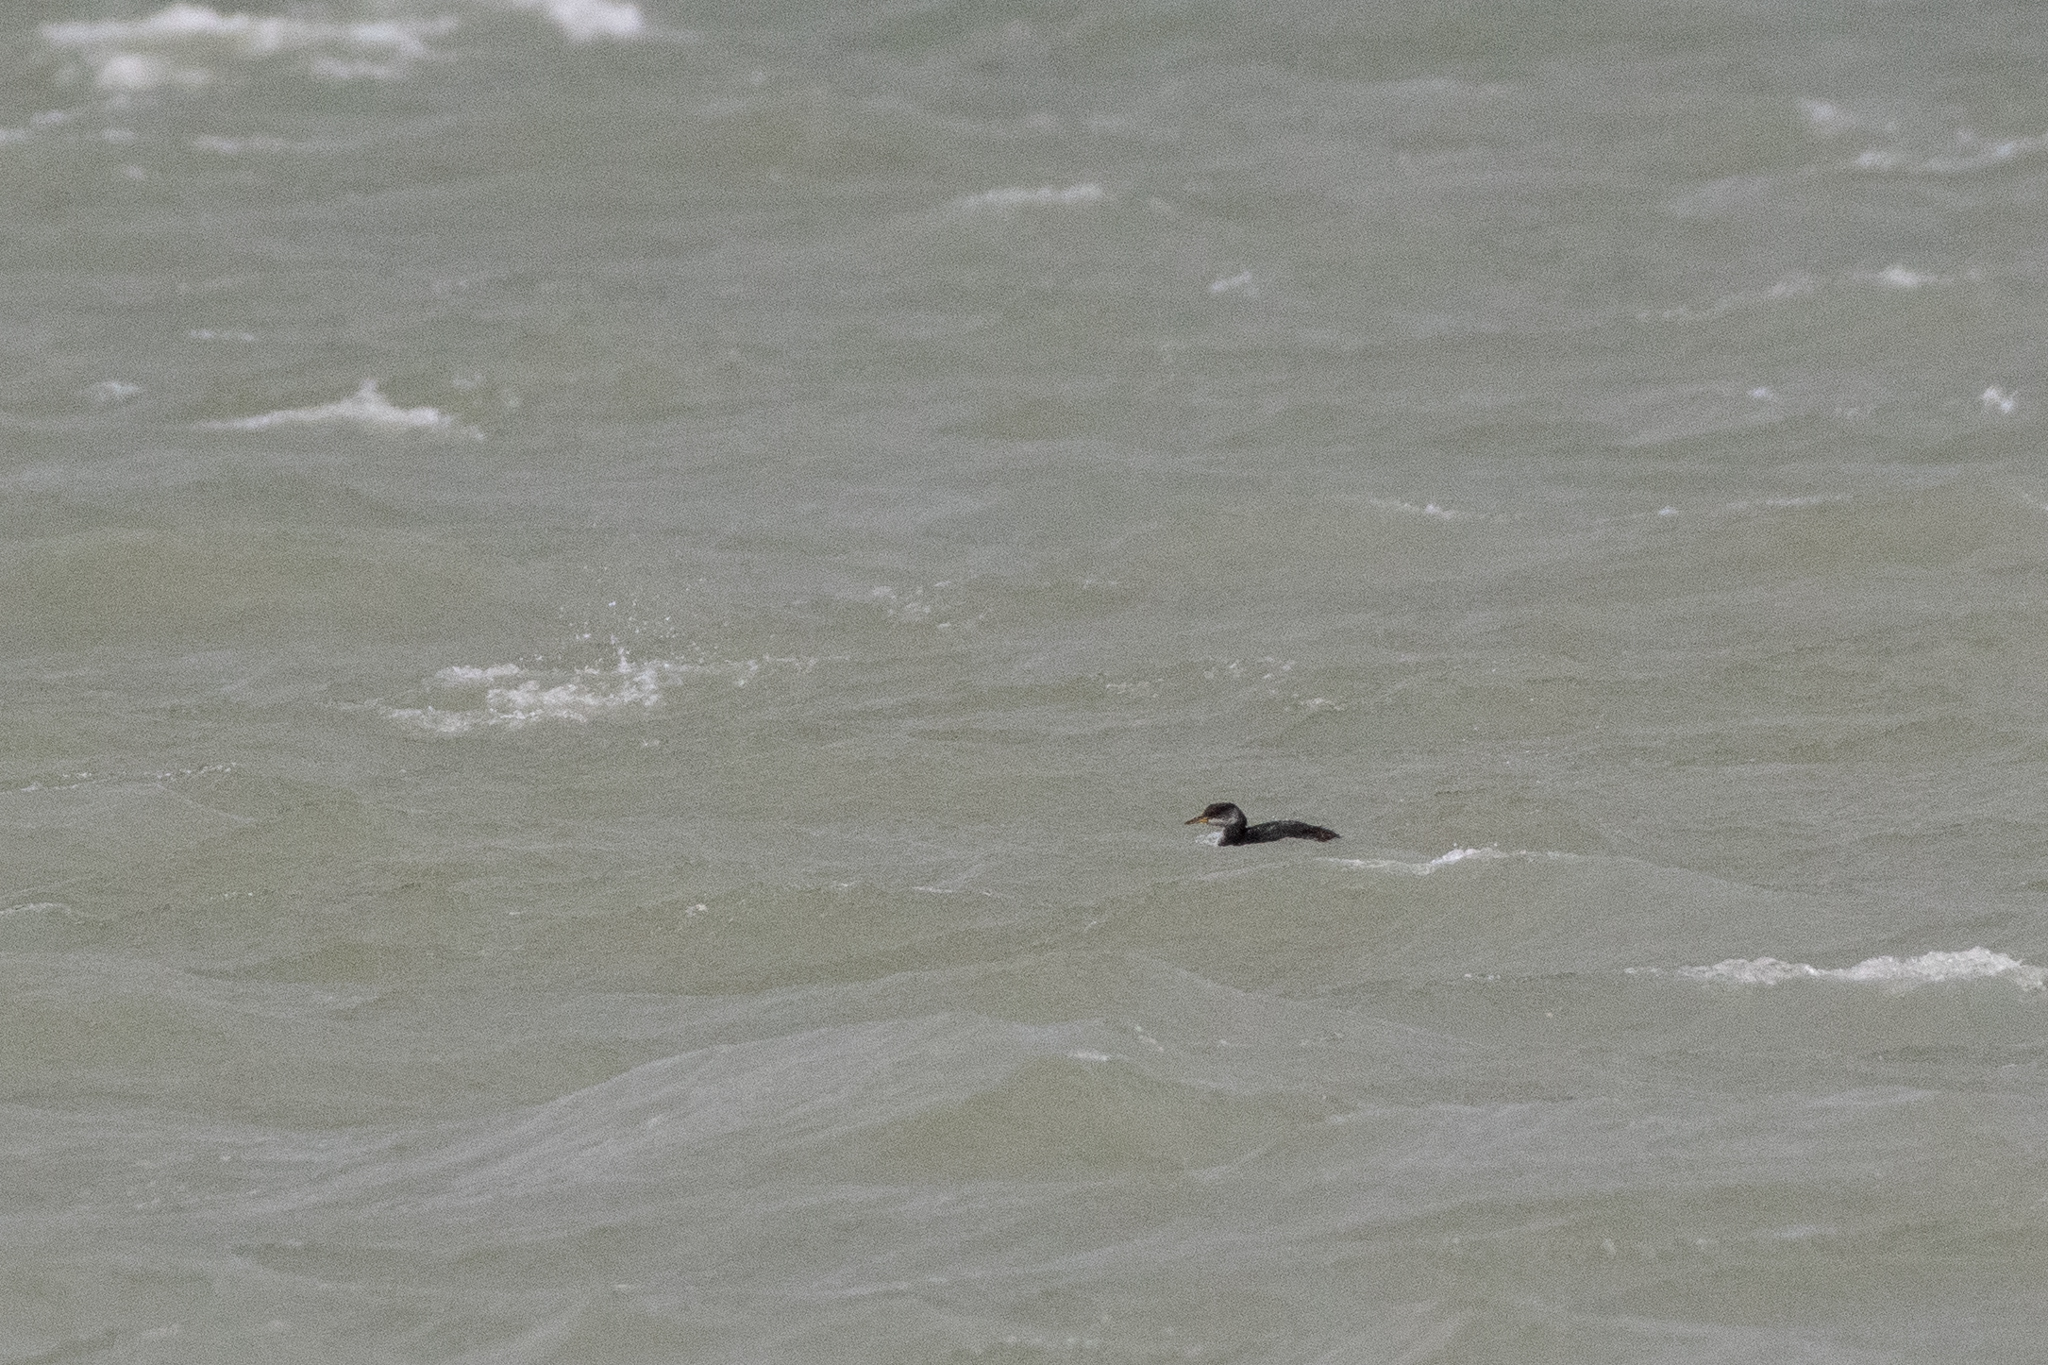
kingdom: Animalia
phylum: Chordata
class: Aves
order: Podicipediformes
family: Podicipedidae
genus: Podiceps
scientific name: Podiceps grisegena
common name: Red-necked grebe
